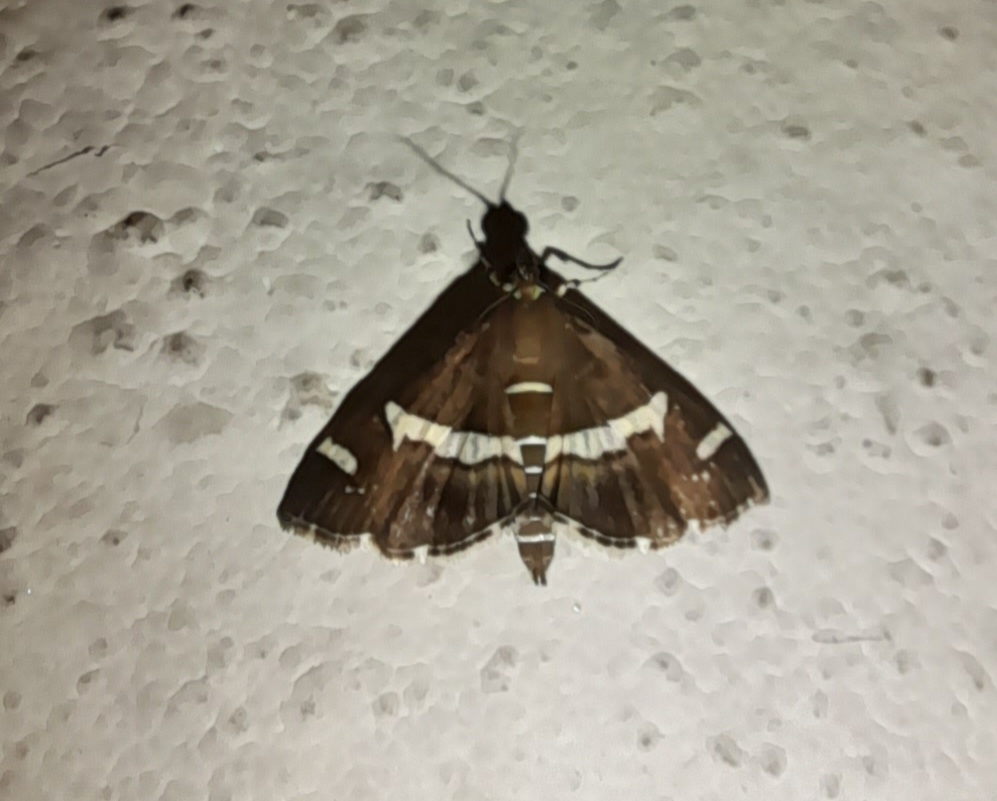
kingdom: Animalia
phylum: Arthropoda
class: Insecta
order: Lepidoptera
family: Crambidae
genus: Spoladea
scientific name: Spoladea recurvalis
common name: Beet webworm moth
